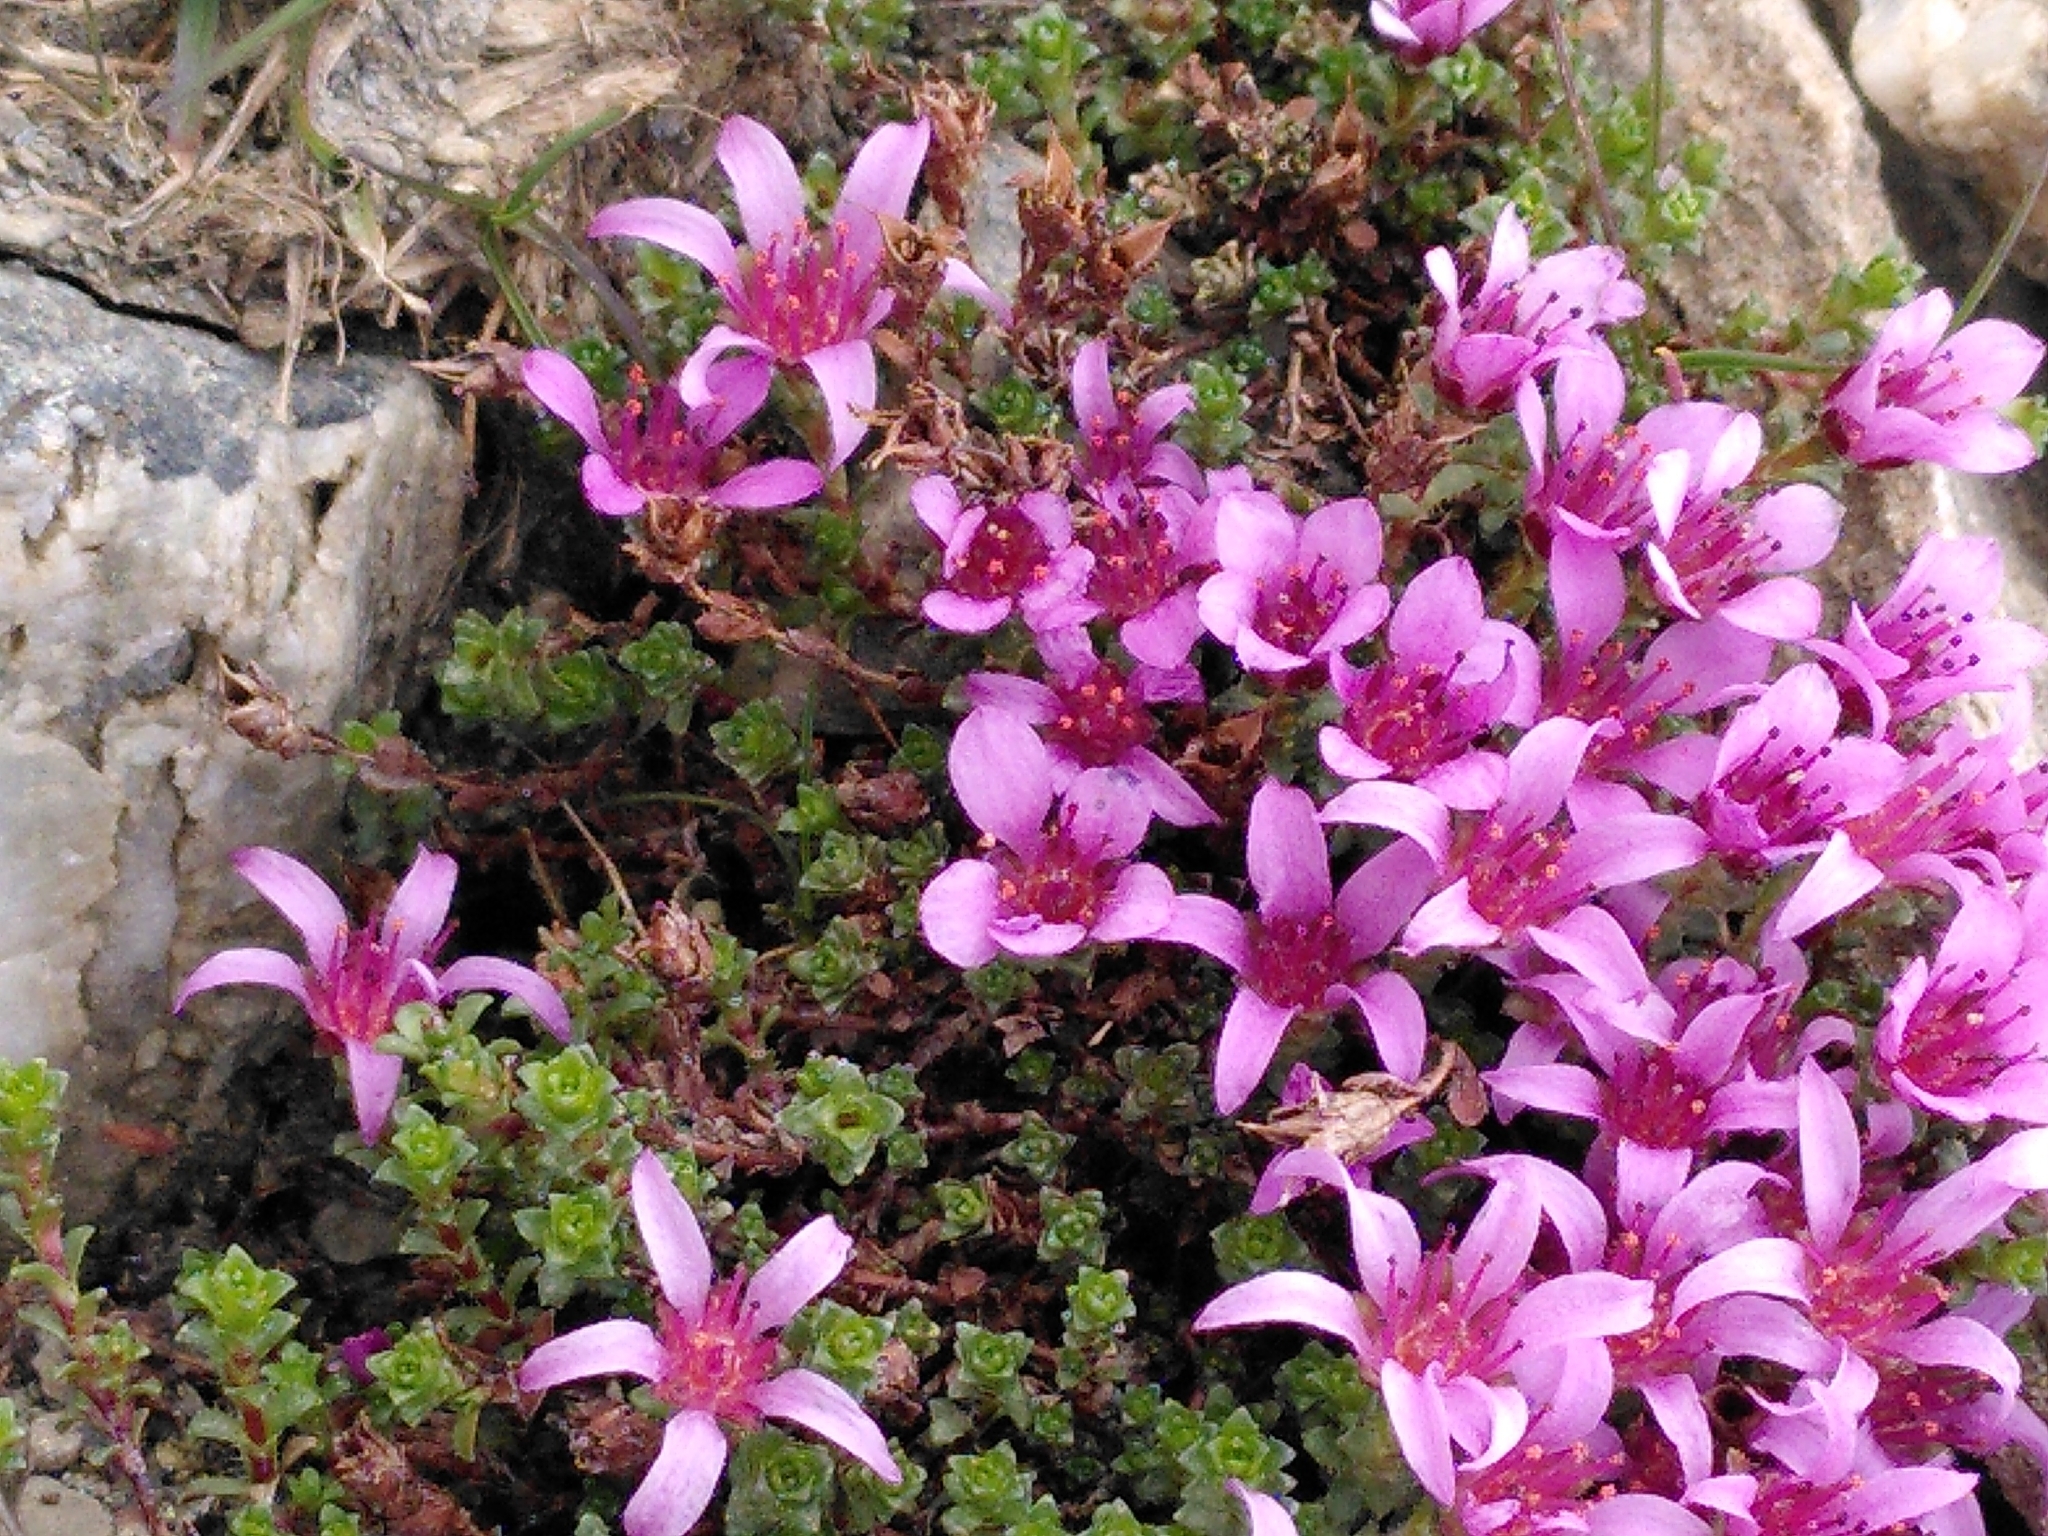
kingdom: Plantae
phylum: Tracheophyta
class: Magnoliopsida
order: Saxifragales
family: Saxifragaceae
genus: Saxifraga
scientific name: Saxifraga oppositifolia
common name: Purple saxifrage
